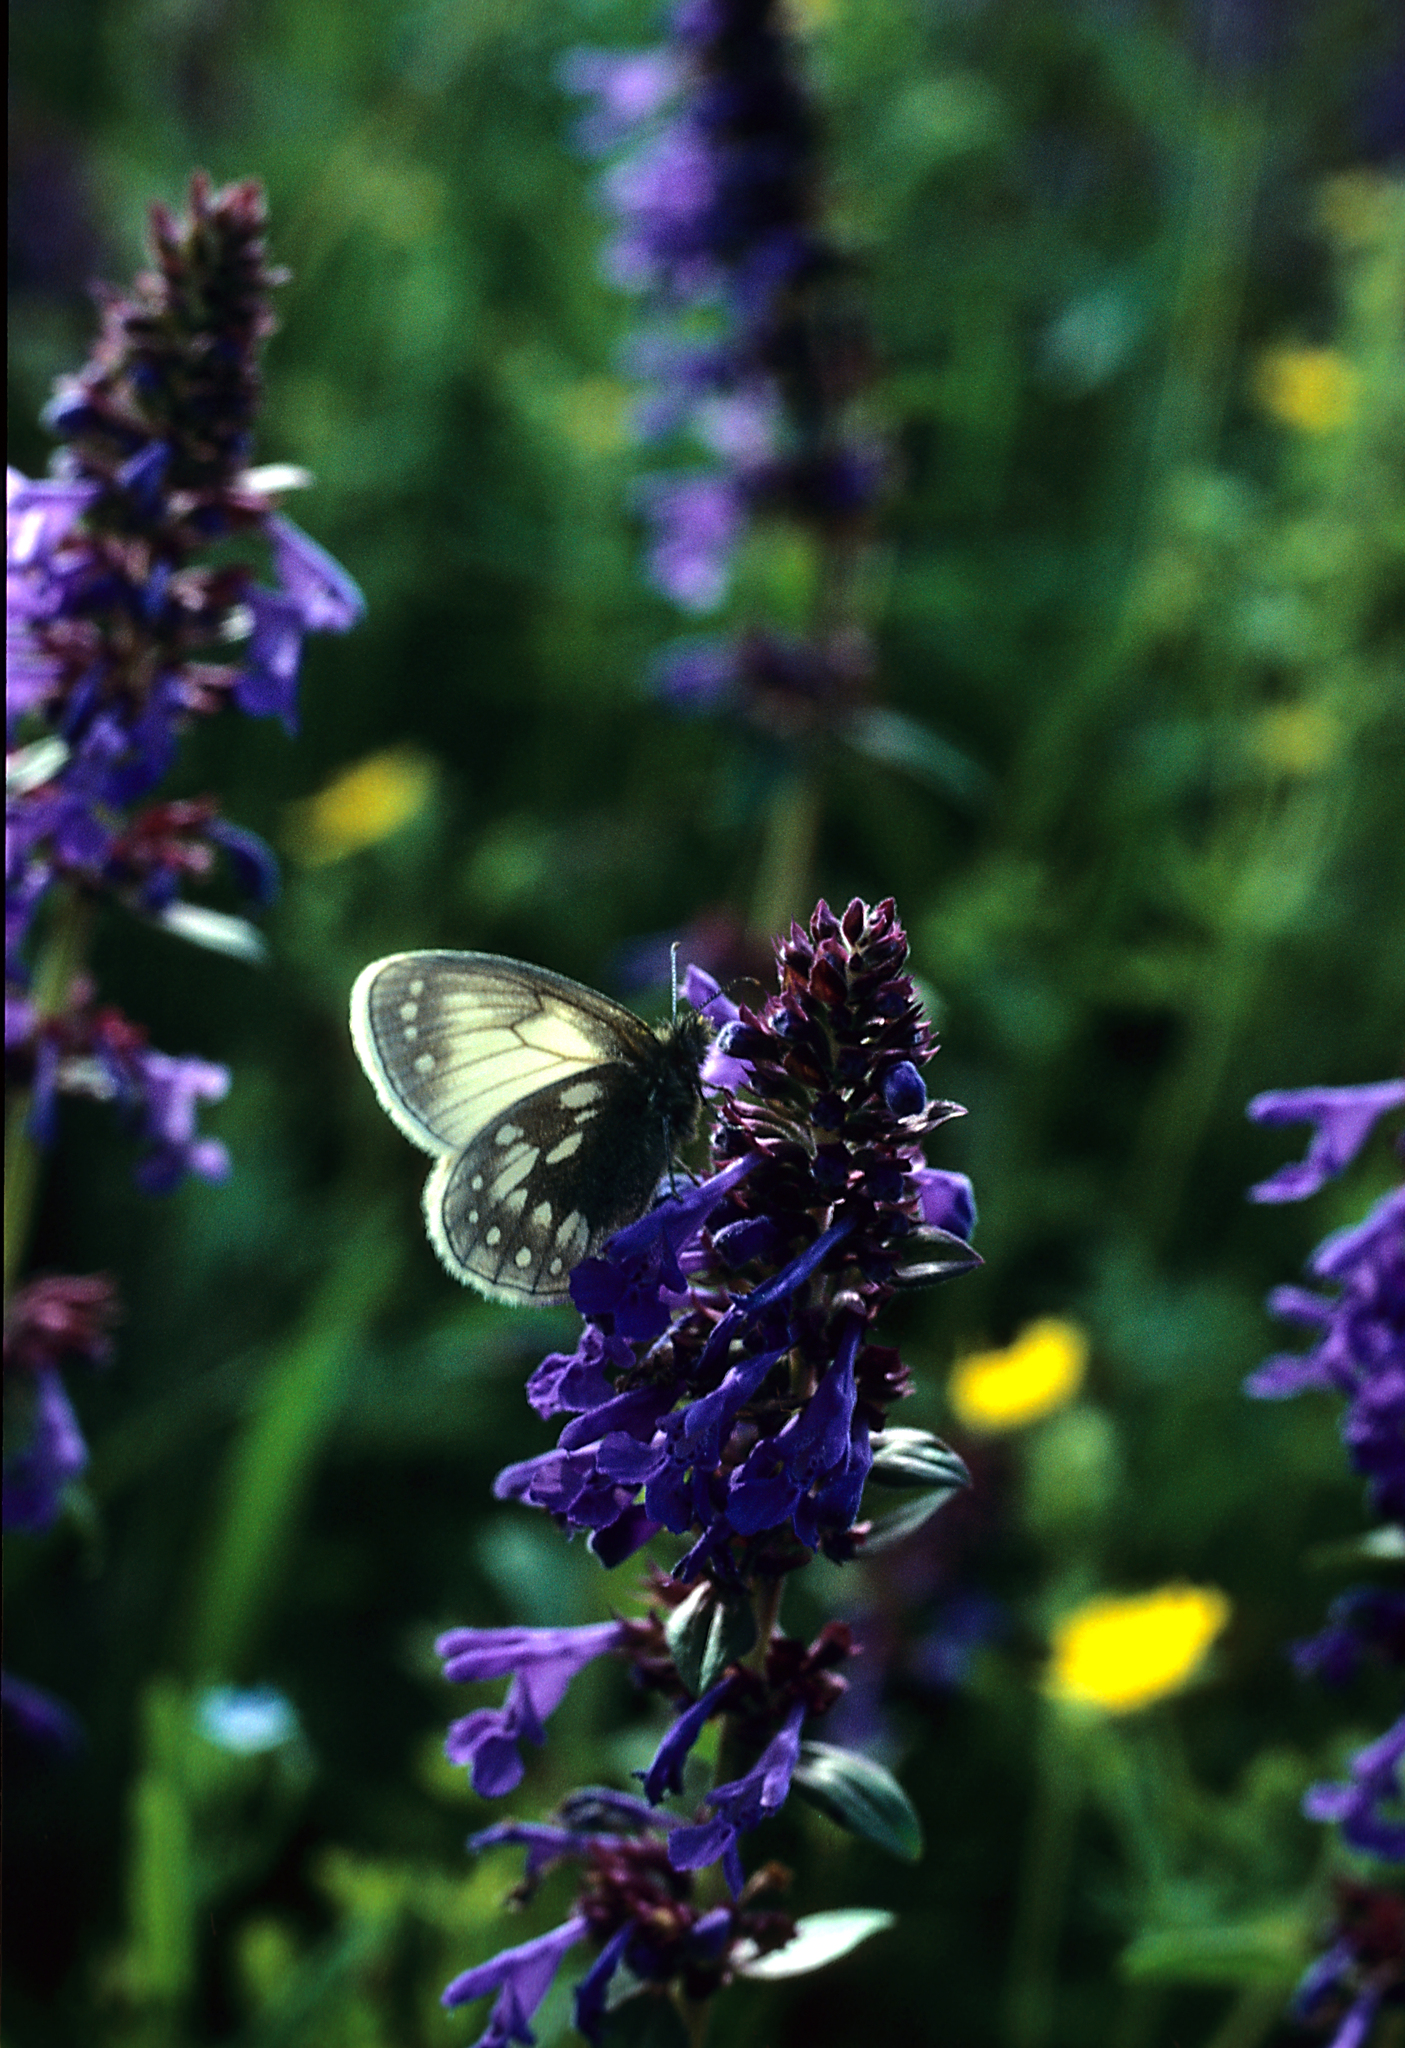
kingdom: Animalia
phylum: Arthropoda
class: Insecta
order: Lepidoptera
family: Nymphalidae
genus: Coenonympha
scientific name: Coenonympha sunbecca
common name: Sunbecca heath
